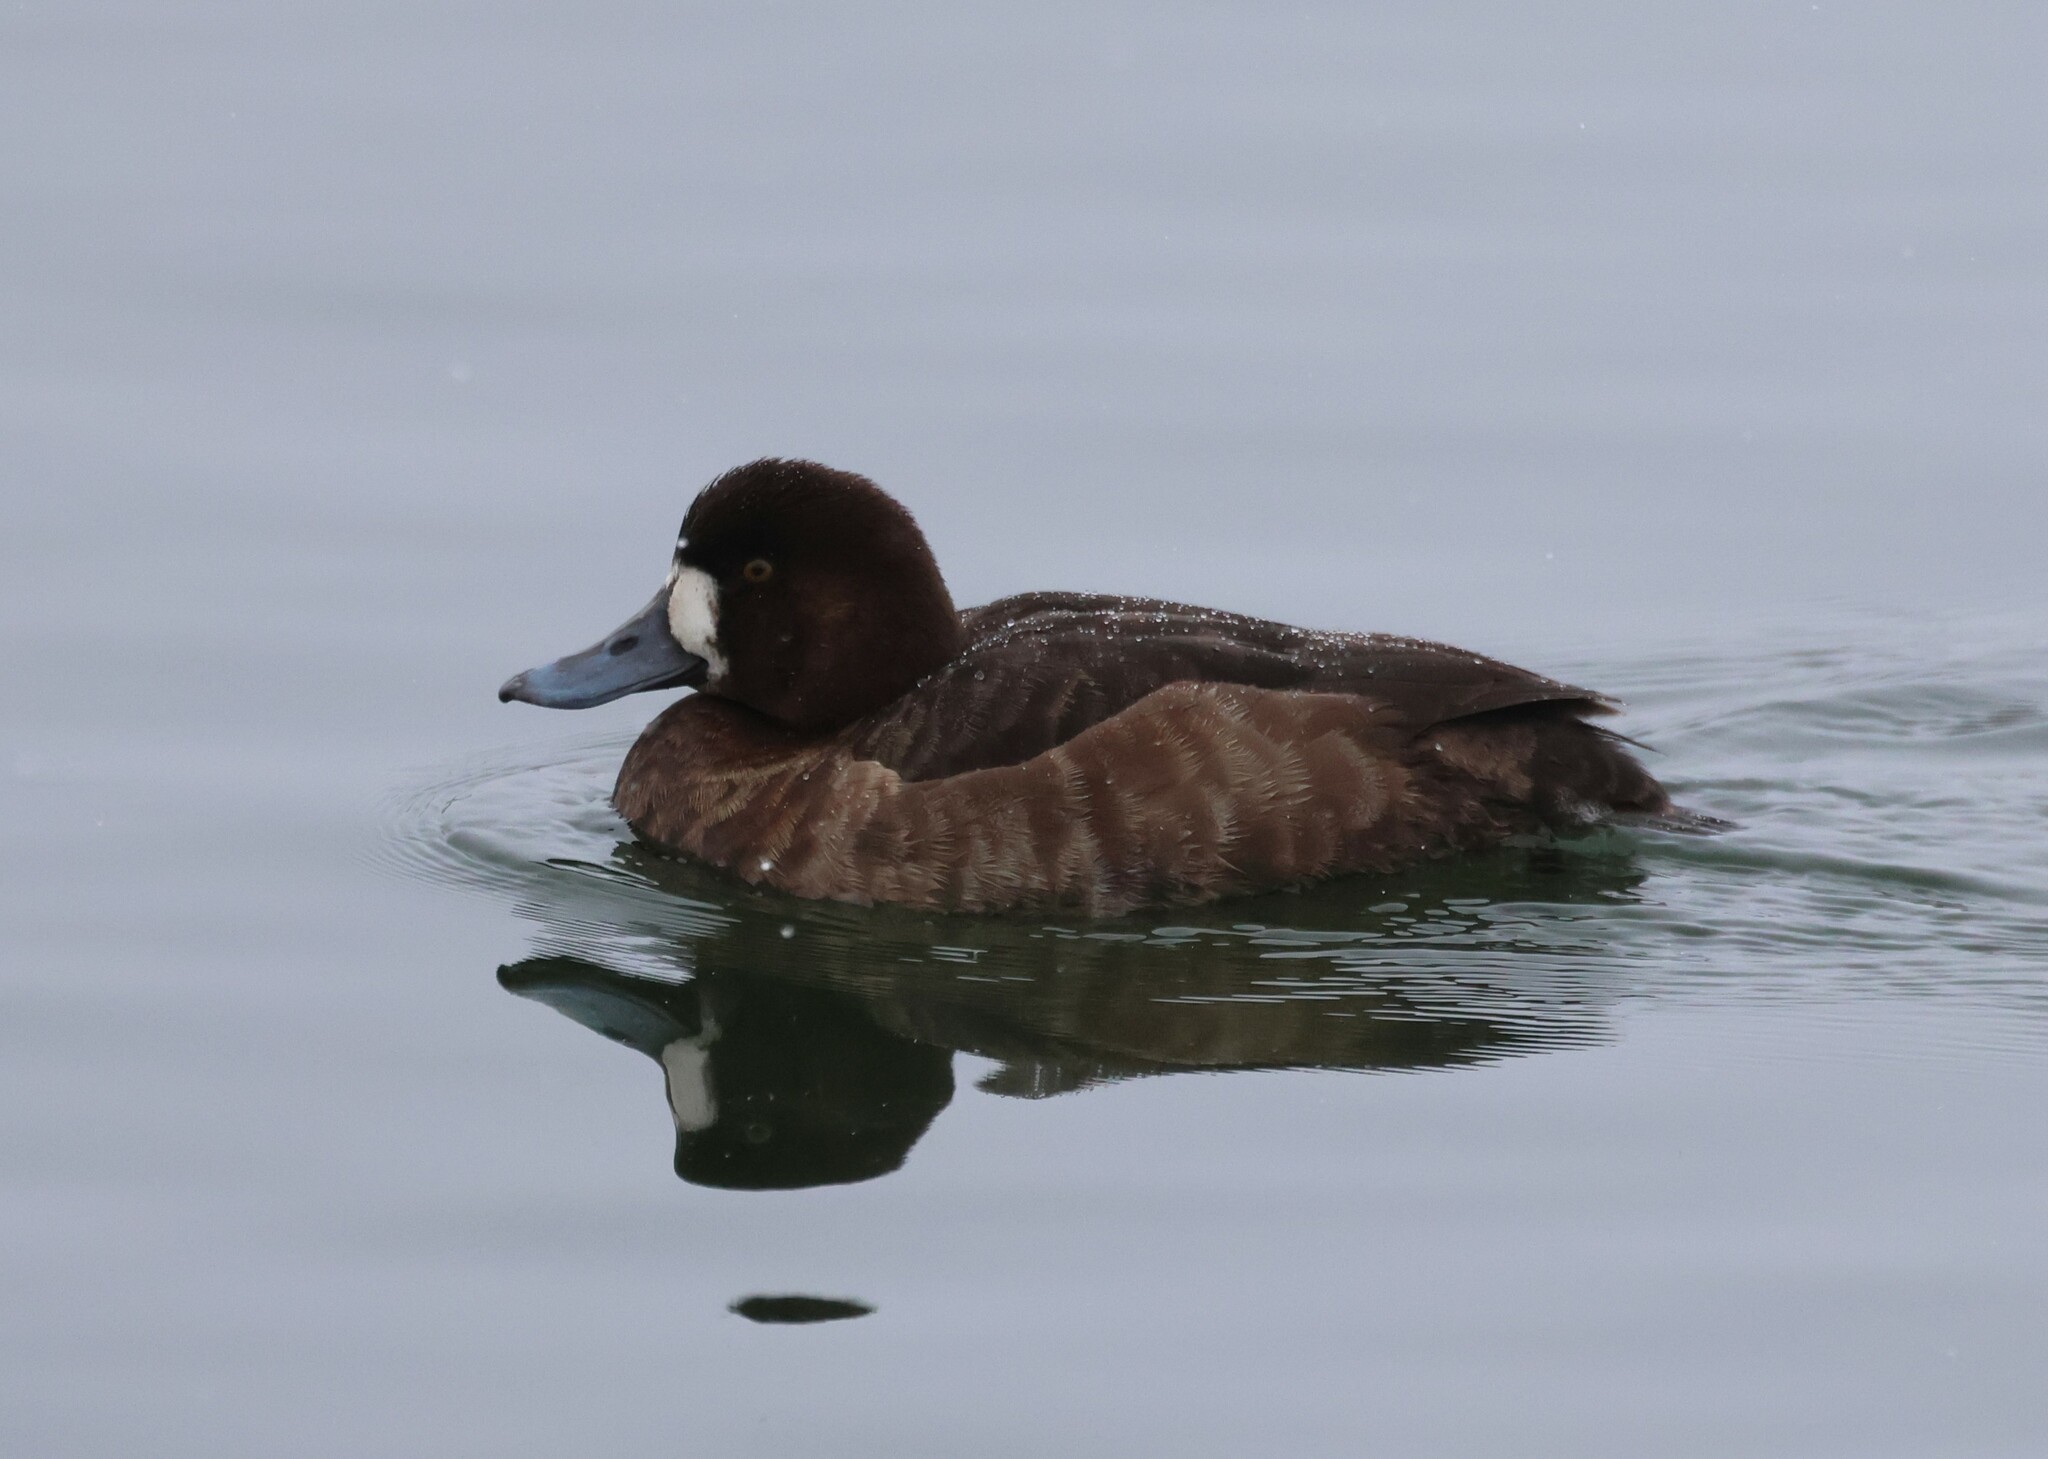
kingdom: Animalia
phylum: Chordata
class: Aves
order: Anseriformes
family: Anatidae
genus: Aythya
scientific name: Aythya marila
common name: Greater scaup
